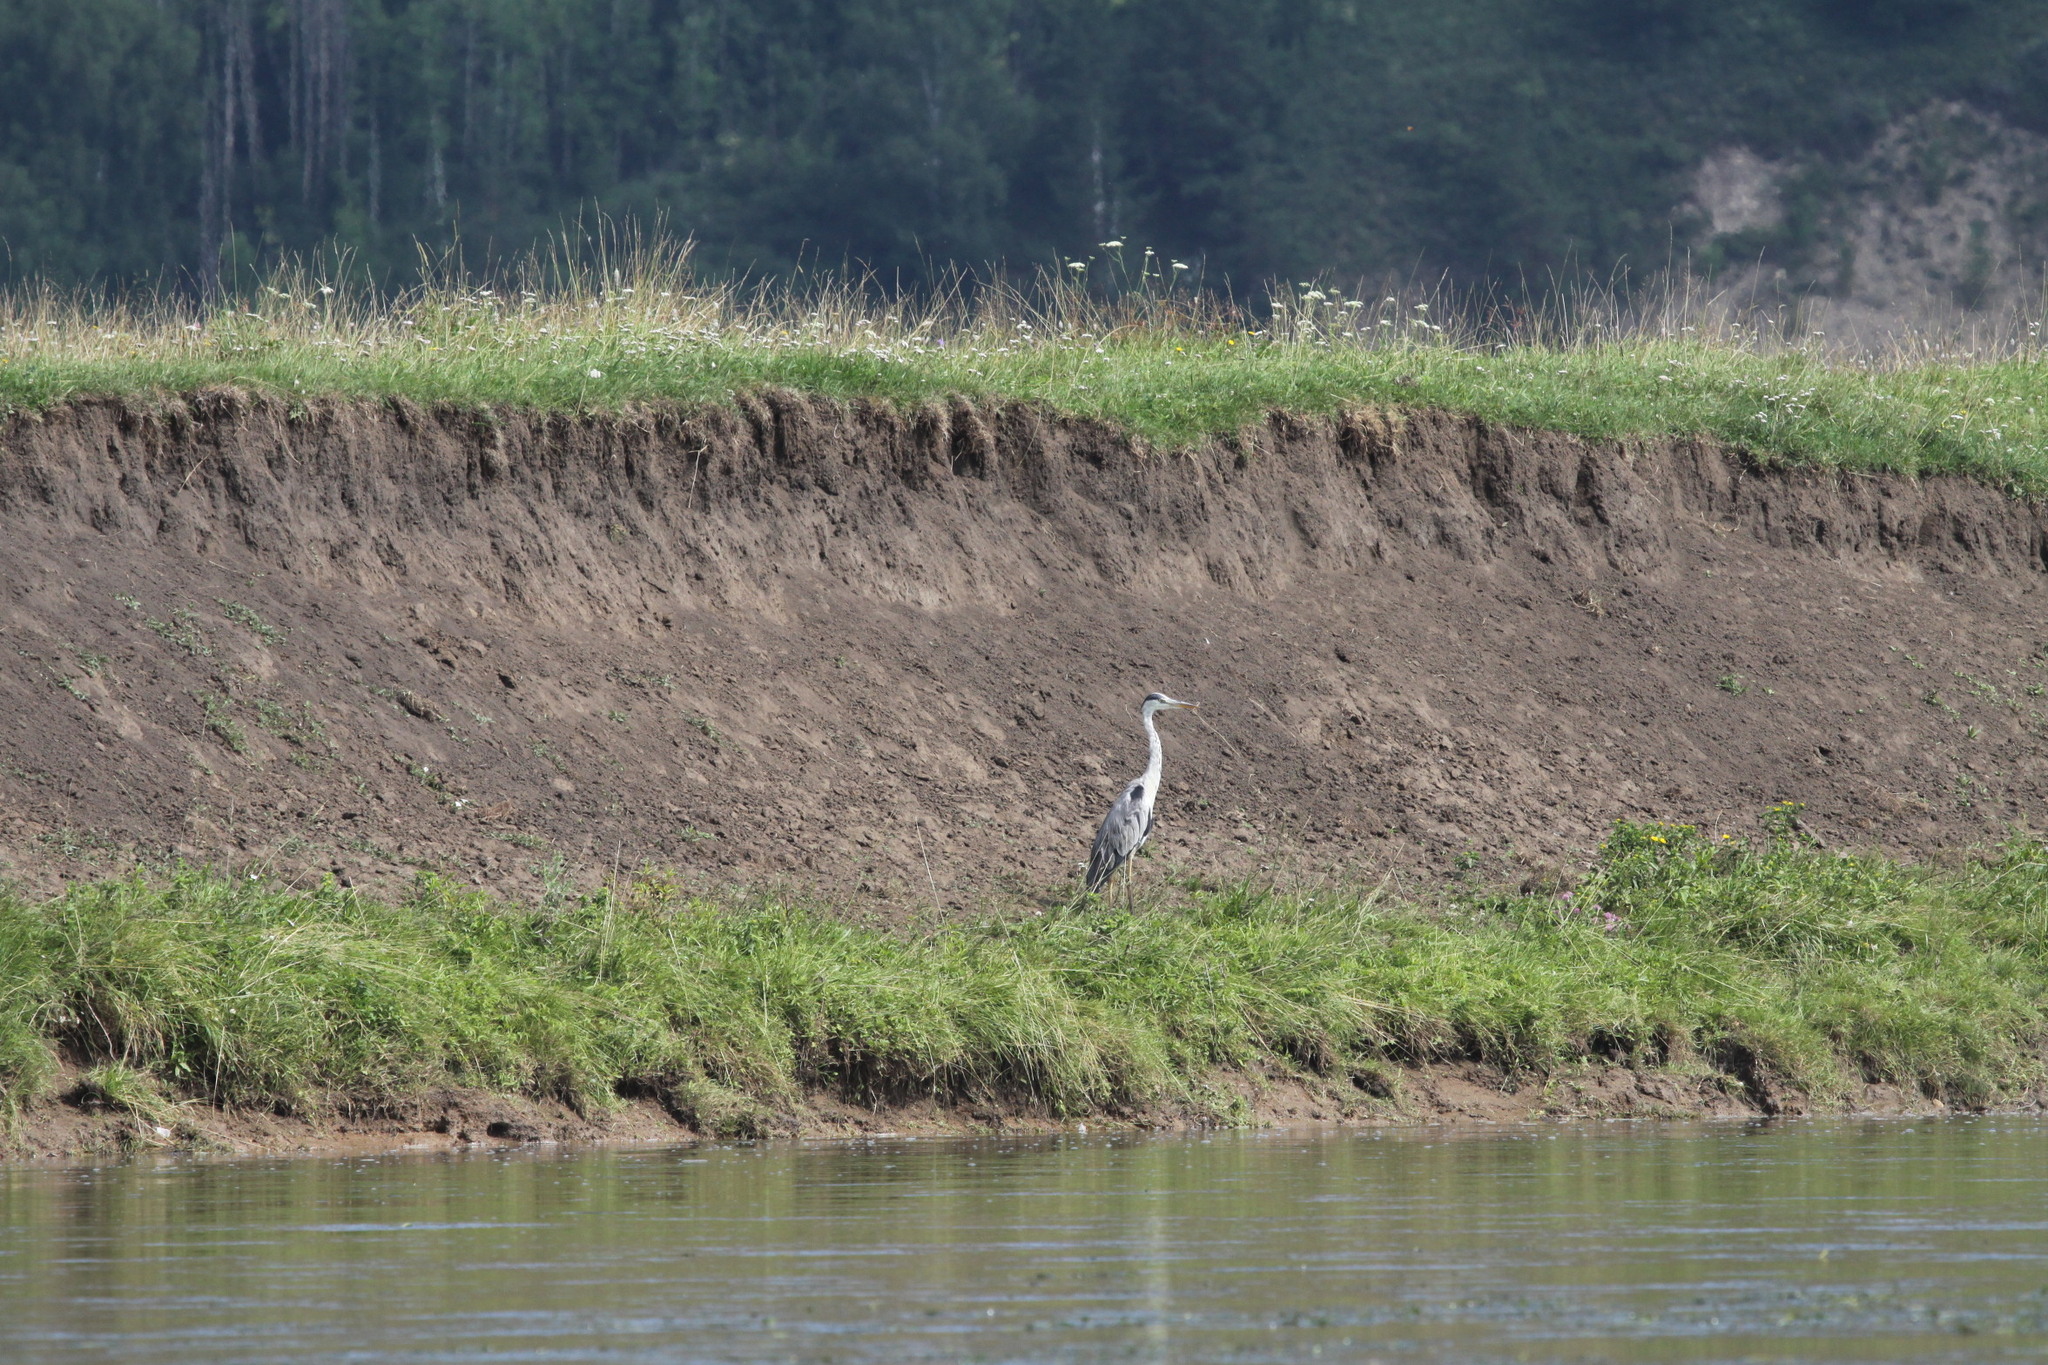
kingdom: Animalia
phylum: Chordata
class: Aves
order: Pelecaniformes
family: Ardeidae
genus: Ardea
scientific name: Ardea cinerea
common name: Grey heron
